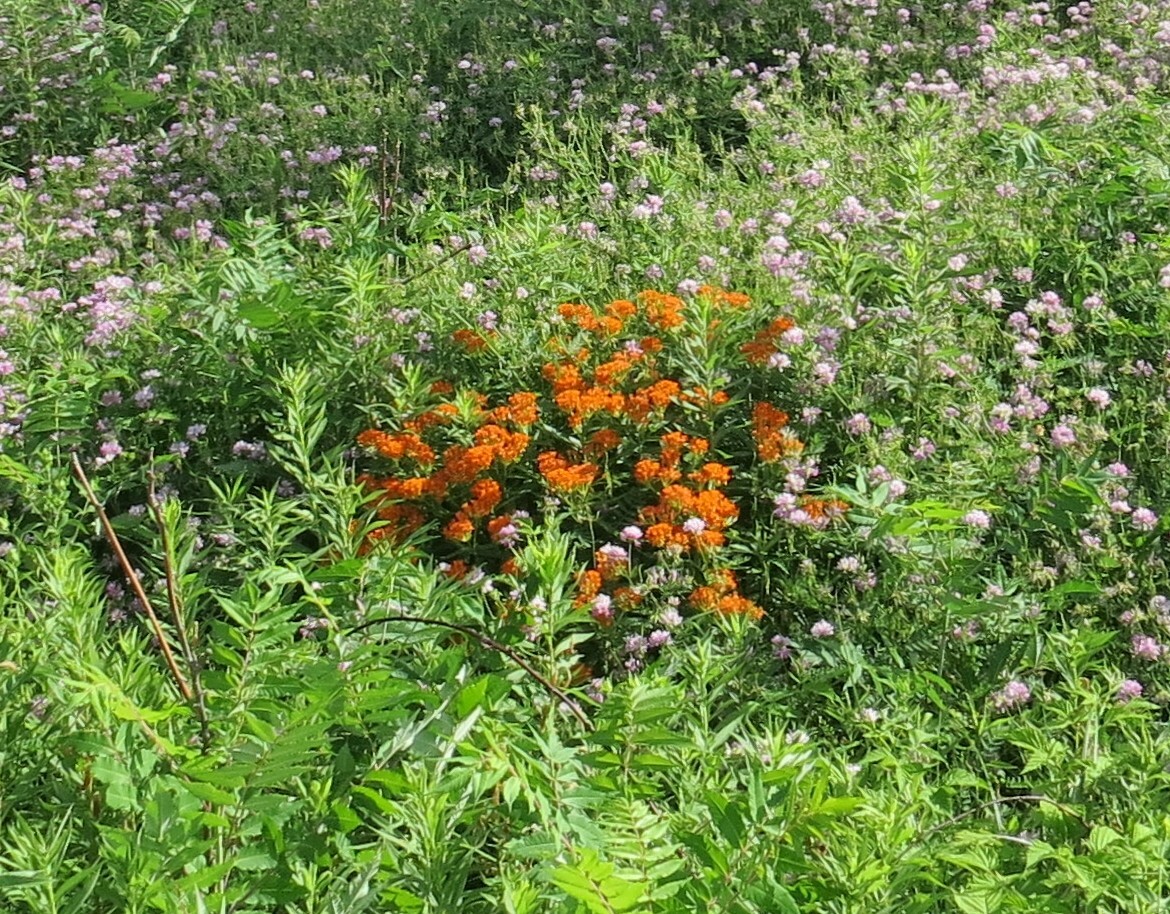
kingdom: Plantae
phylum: Tracheophyta
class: Magnoliopsida
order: Gentianales
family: Apocynaceae
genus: Asclepias
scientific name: Asclepias tuberosa
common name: Butterfly milkweed
